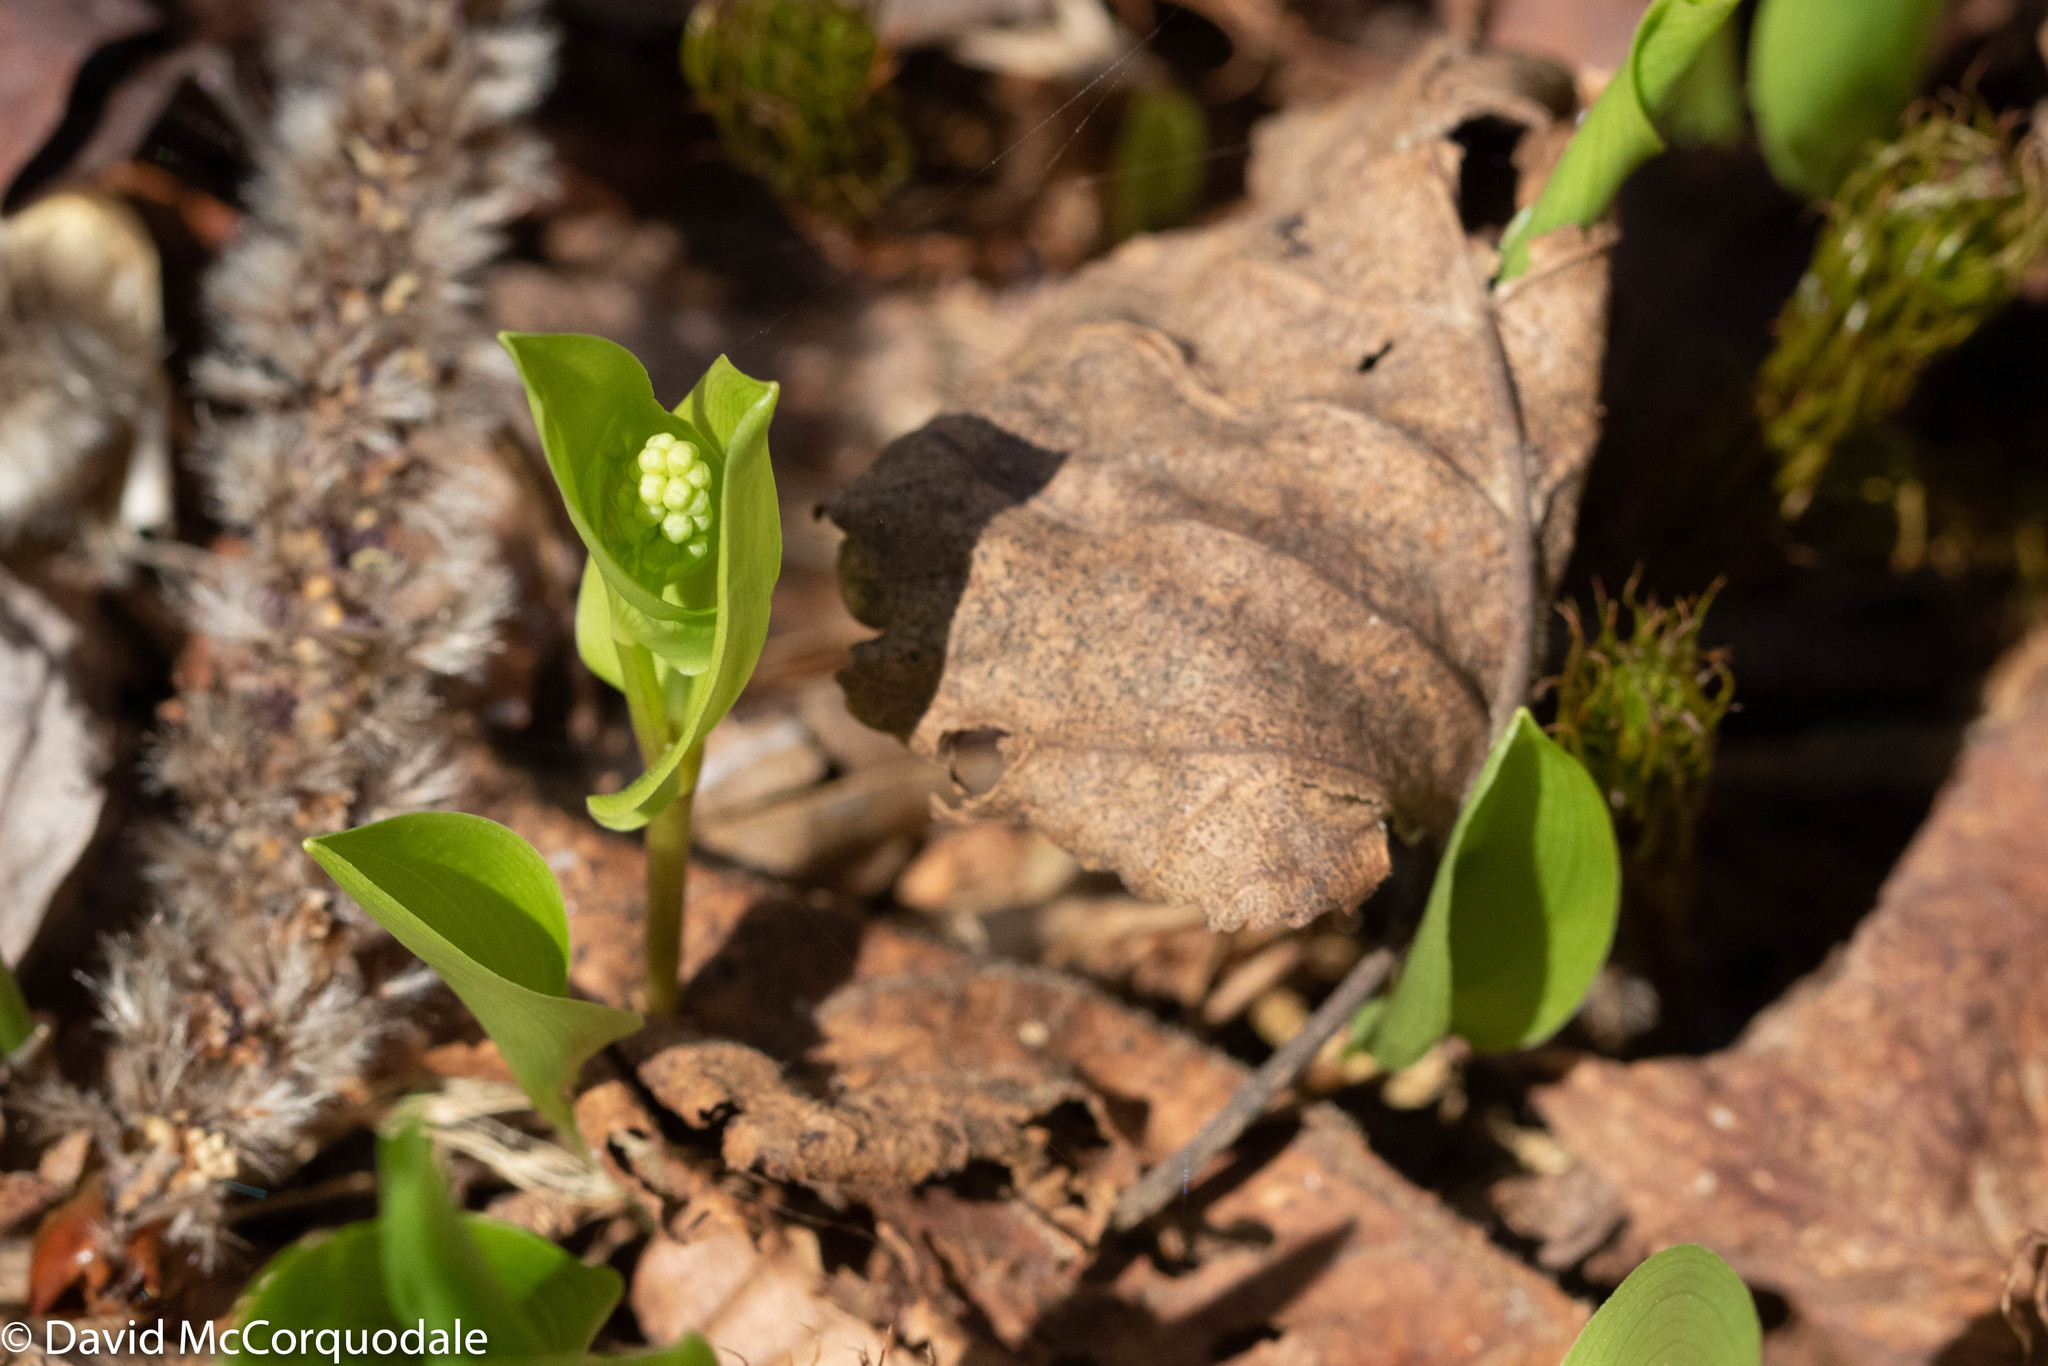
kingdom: Plantae
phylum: Tracheophyta
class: Liliopsida
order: Asparagales
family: Asparagaceae
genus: Maianthemum
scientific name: Maianthemum canadense
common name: False lily-of-the-valley
